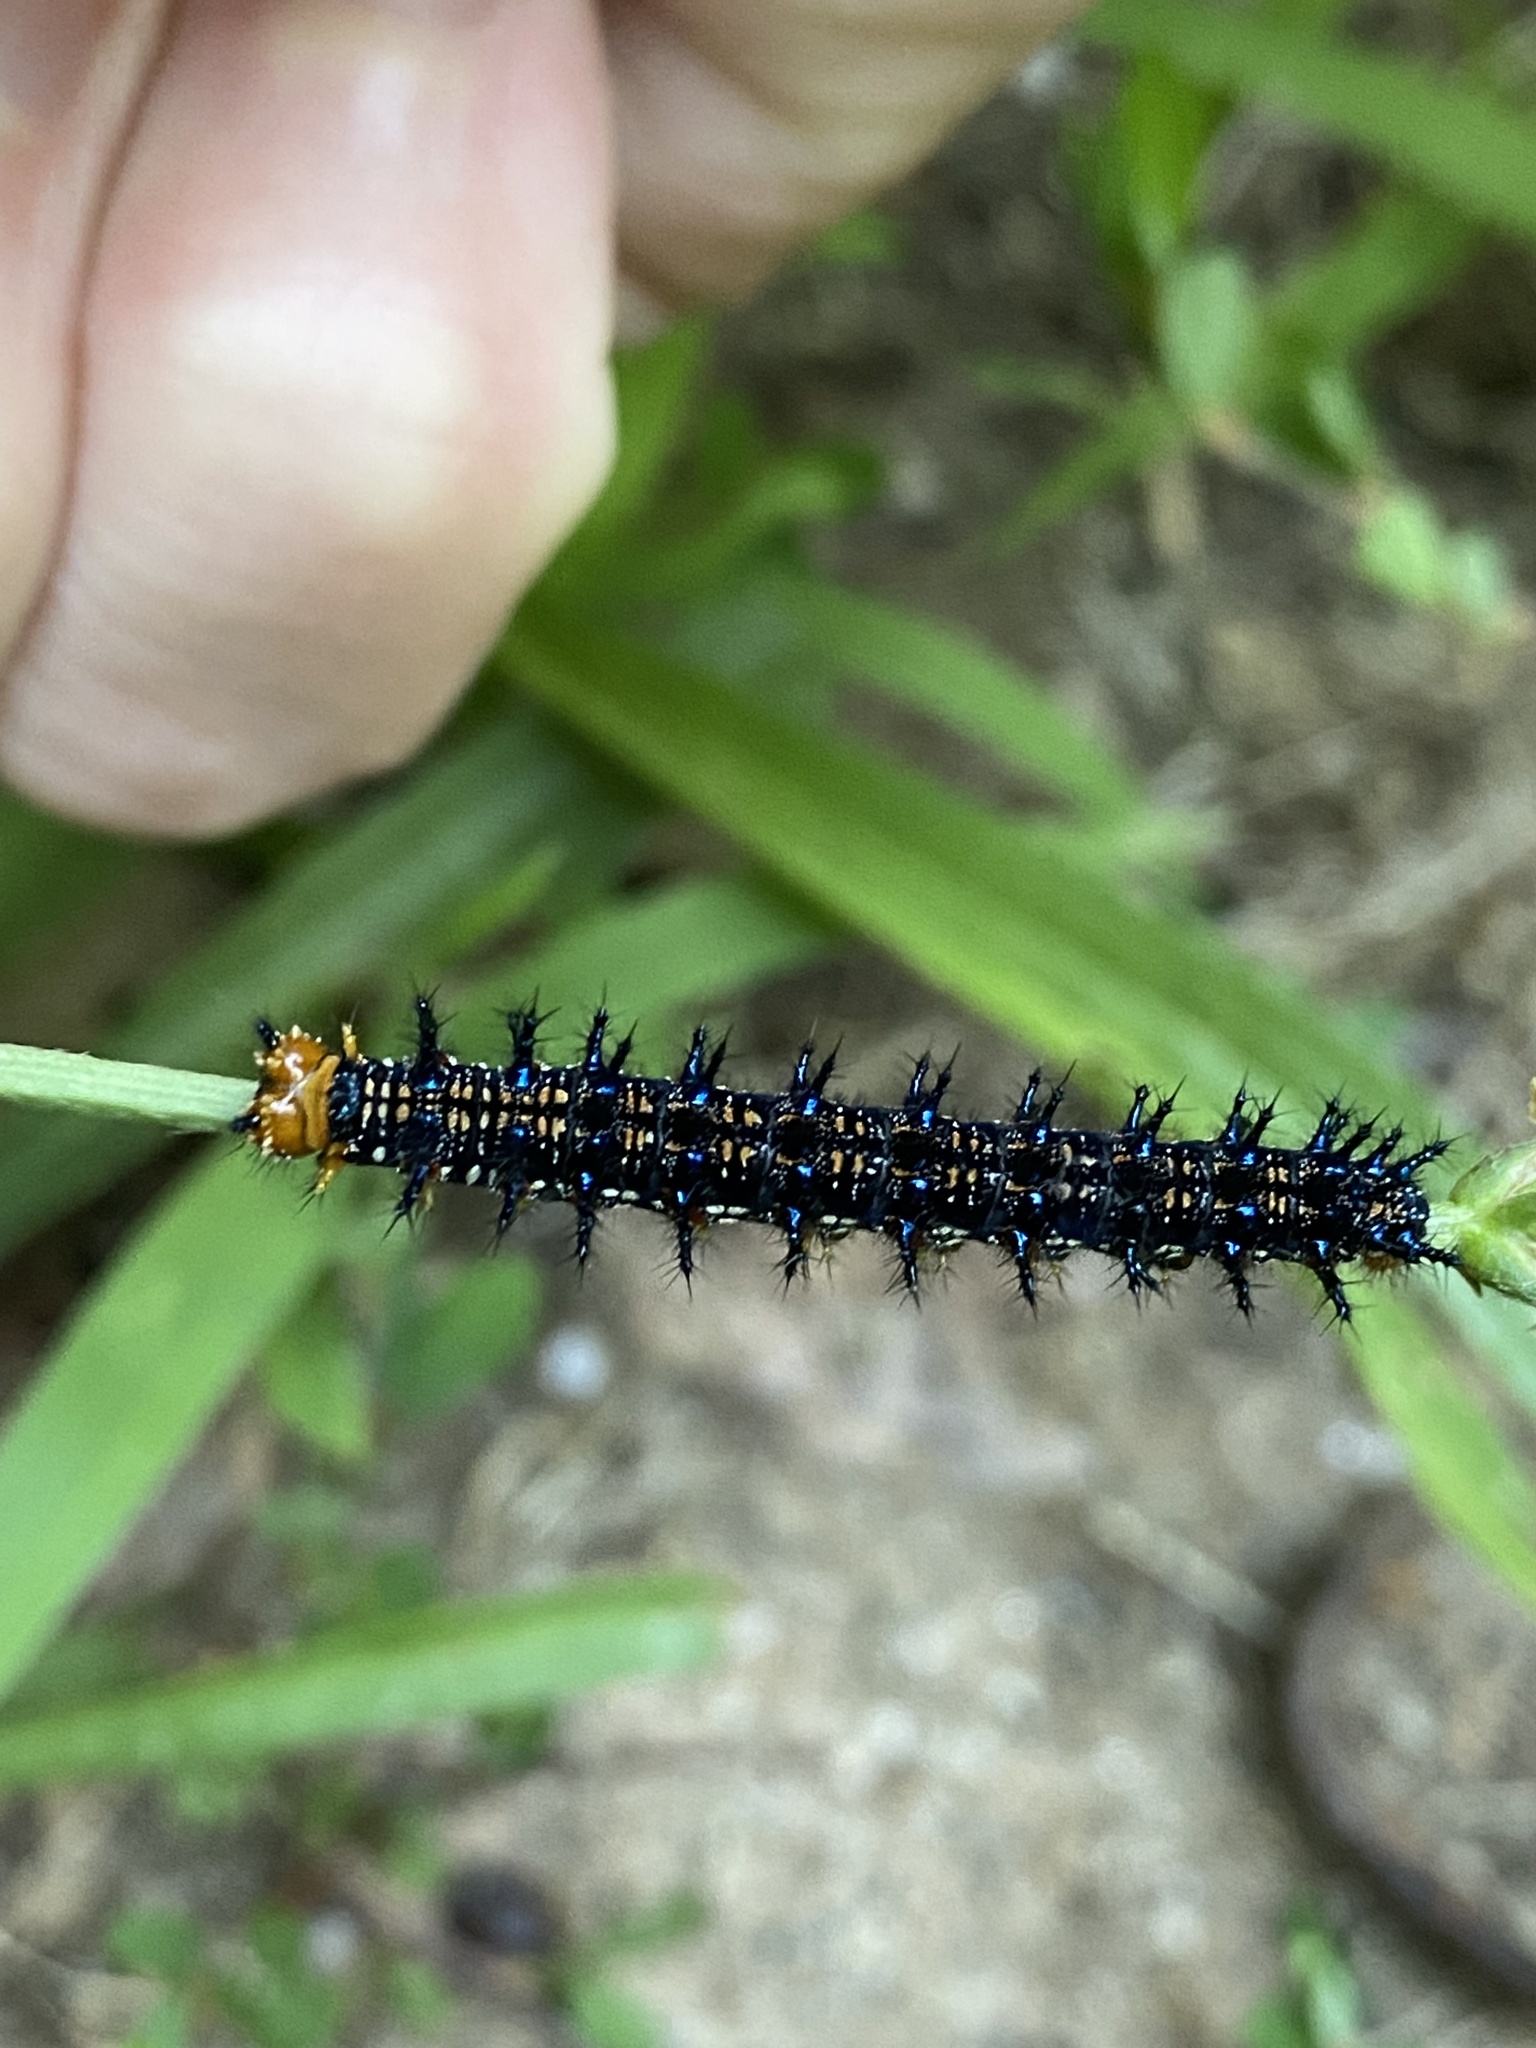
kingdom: Animalia
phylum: Arthropoda
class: Insecta
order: Lepidoptera
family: Nymphalidae
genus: Junonia
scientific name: Junonia coenia
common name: Common buckeye
